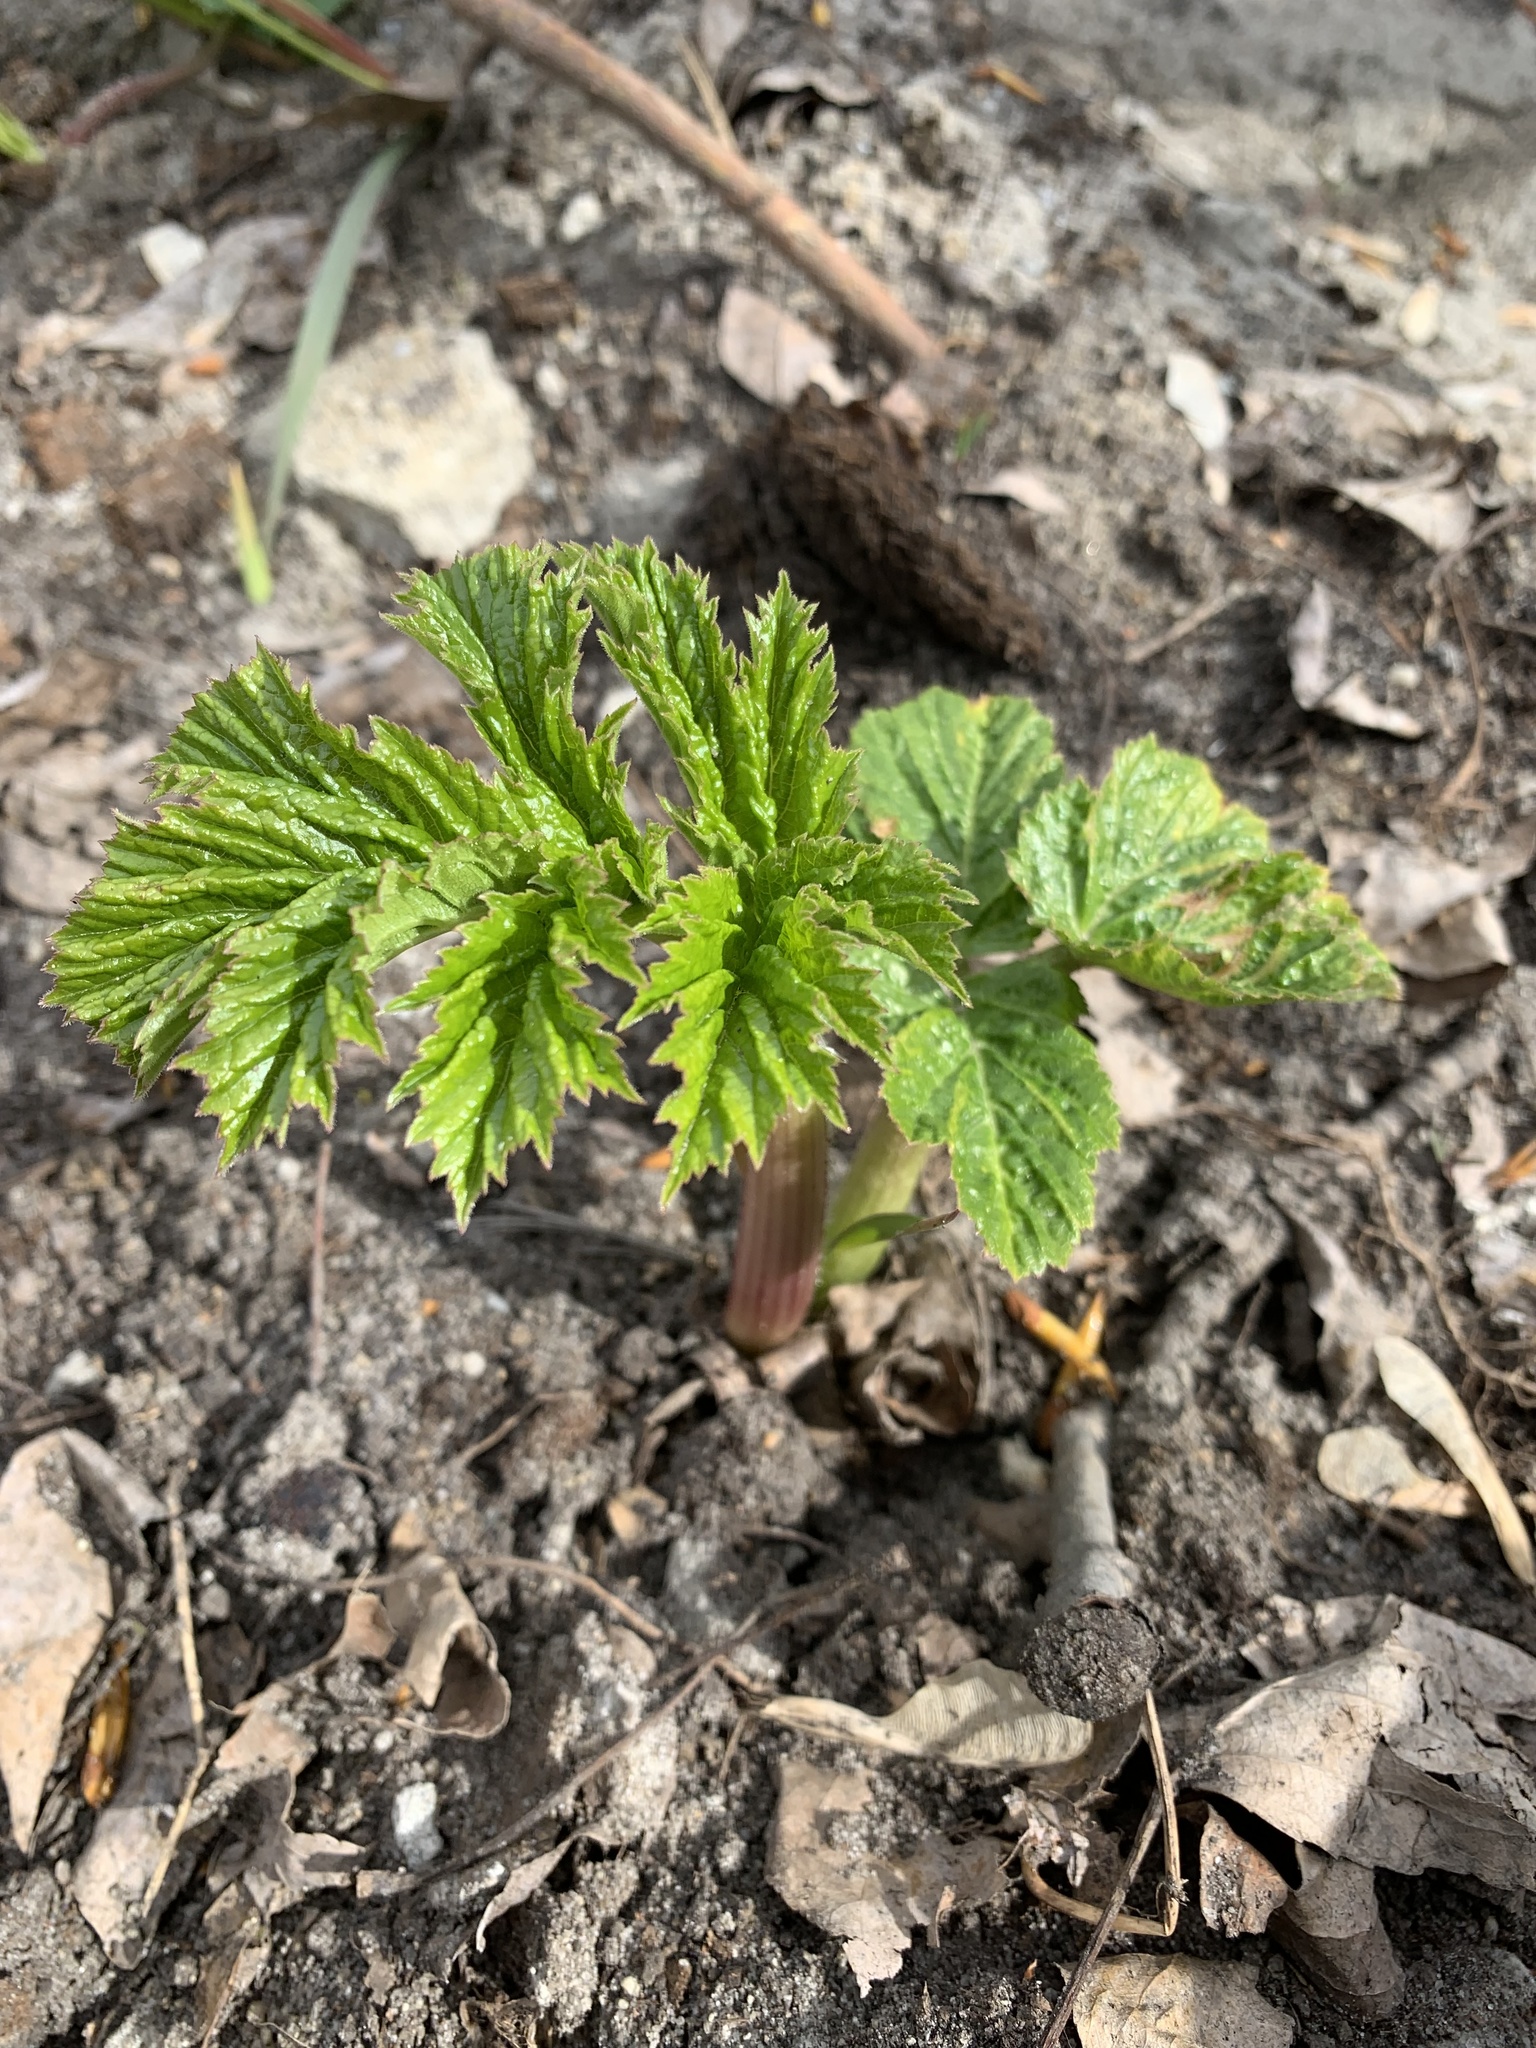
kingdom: Plantae
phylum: Tracheophyta
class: Magnoliopsida
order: Apiales
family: Apiaceae
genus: Heracleum
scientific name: Heracleum sosnowskyi
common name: Sosnowsky's hogweed
